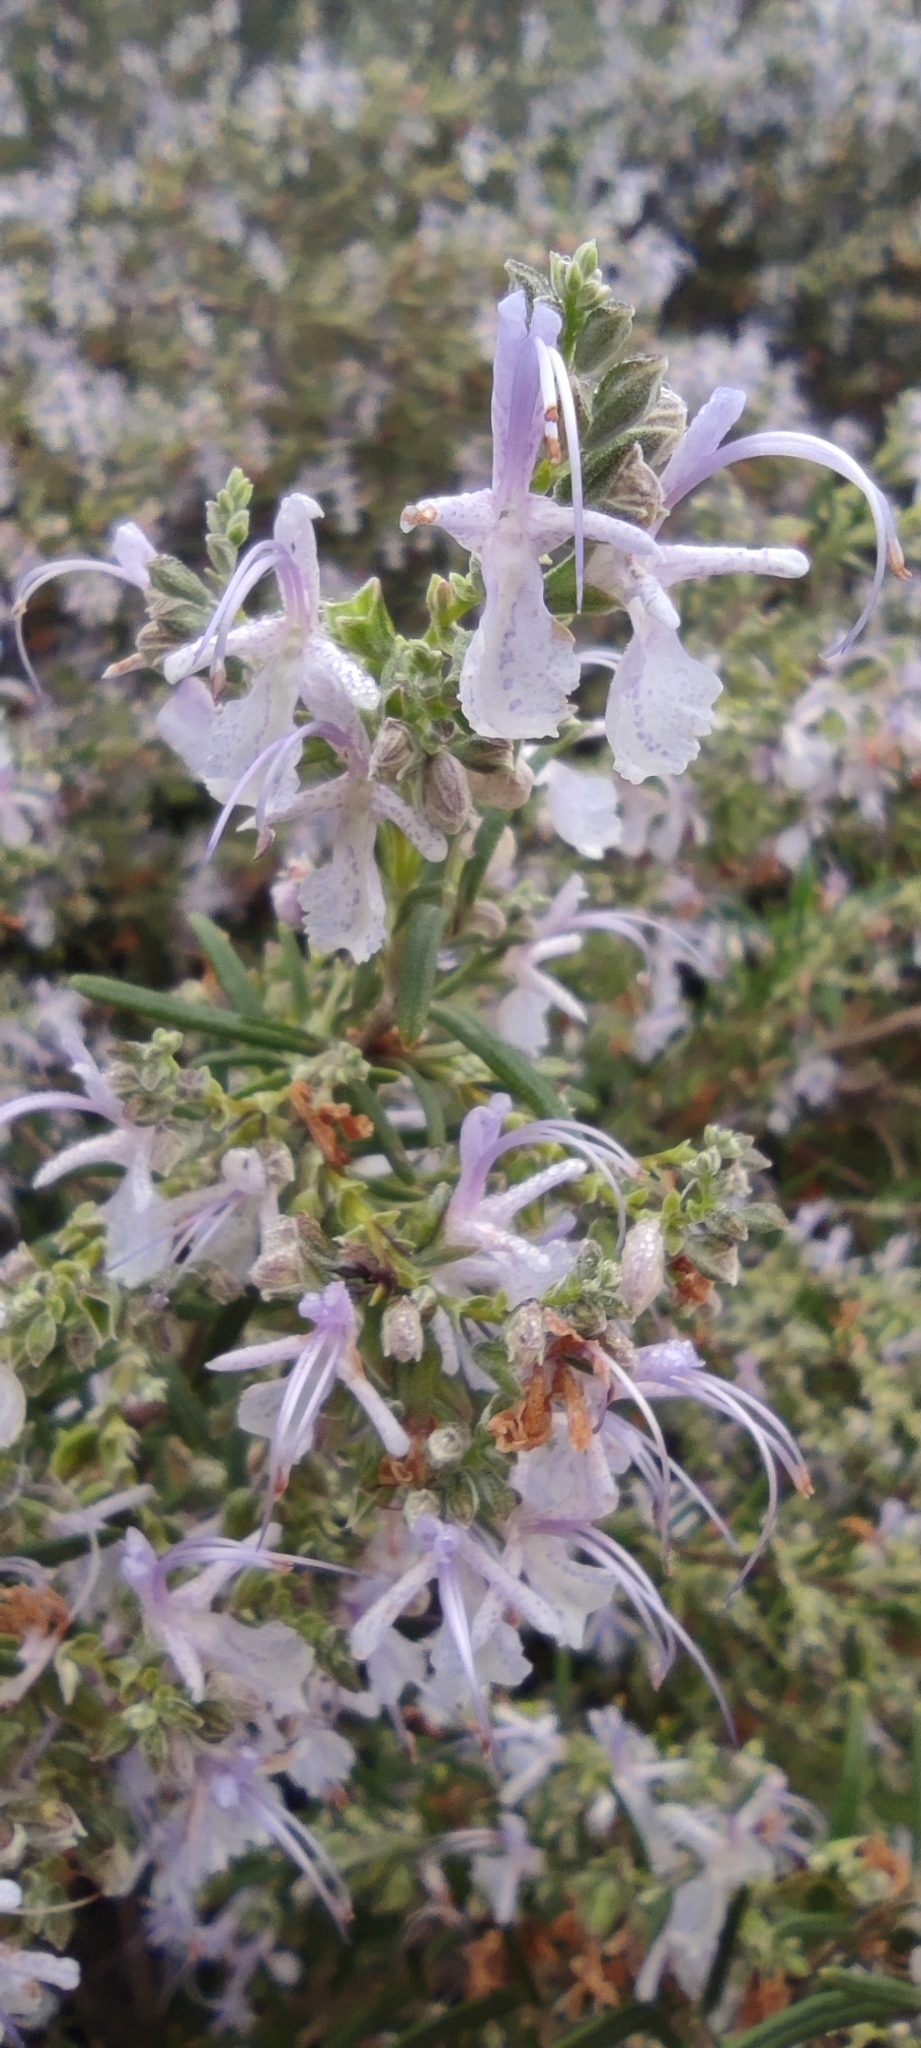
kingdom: Plantae
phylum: Tracheophyta
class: Magnoliopsida
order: Lamiales
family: Lamiaceae
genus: Salvia
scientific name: Salvia rosmarinus
